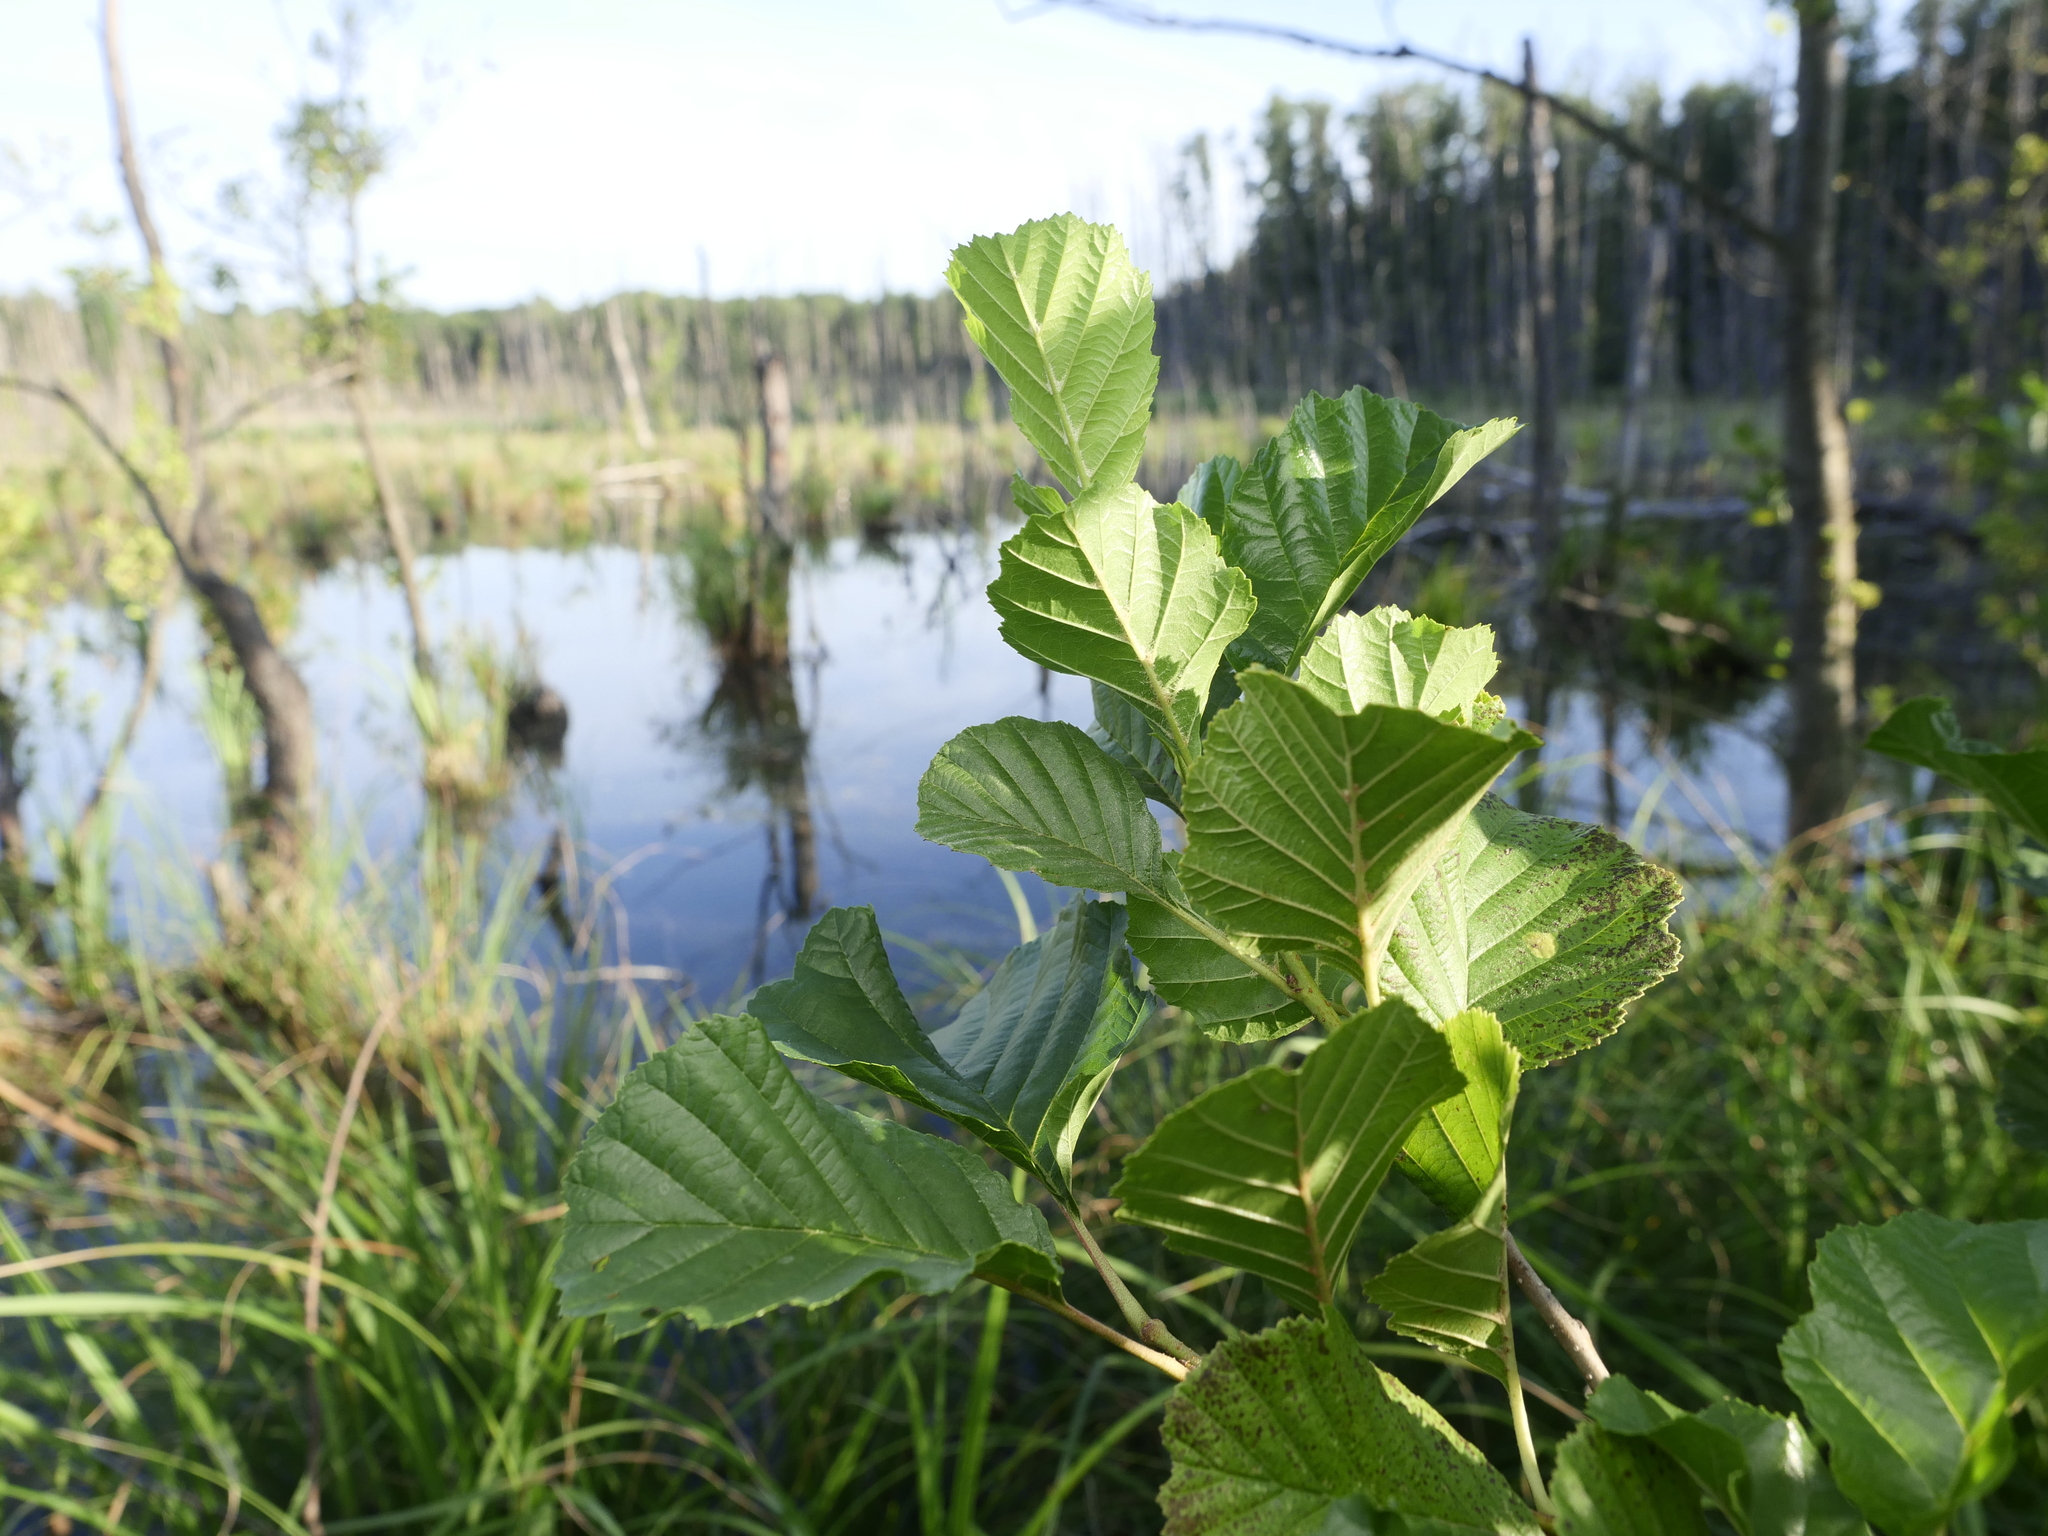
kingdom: Plantae
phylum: Tracheophyta
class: Magnoliopsida
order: Fagales
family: Betulaceae
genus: Alnus
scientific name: Alnus glutinosa
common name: Black alder
